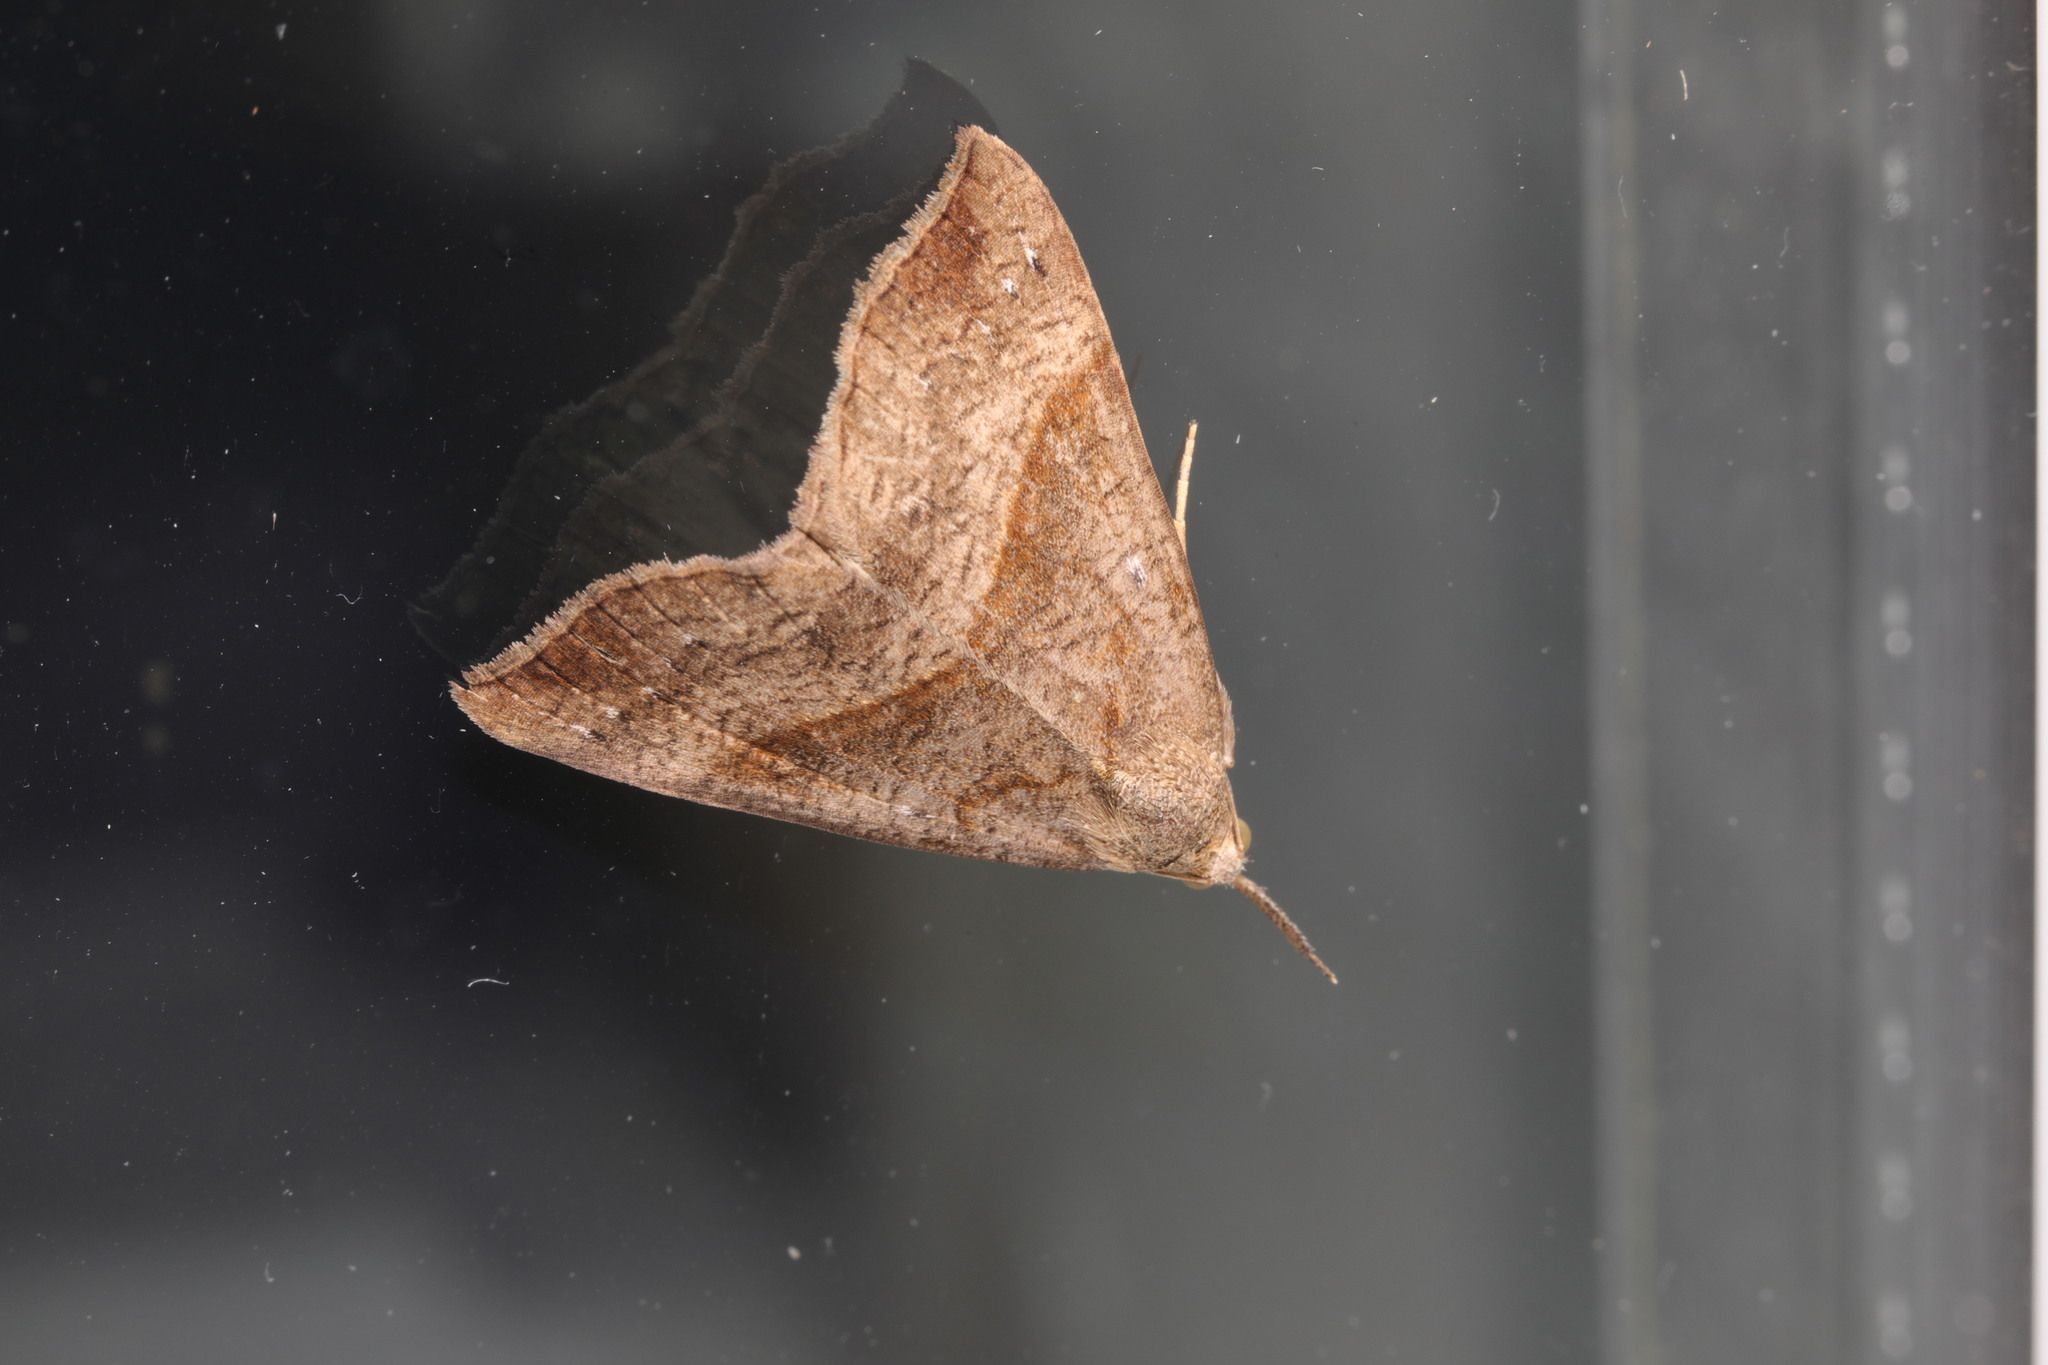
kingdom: Animalia
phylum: Arthropoda
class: Insecta
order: Lepidoptera
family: Erebidae
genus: Hypena
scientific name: Hypena proboscidalis
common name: Snout
